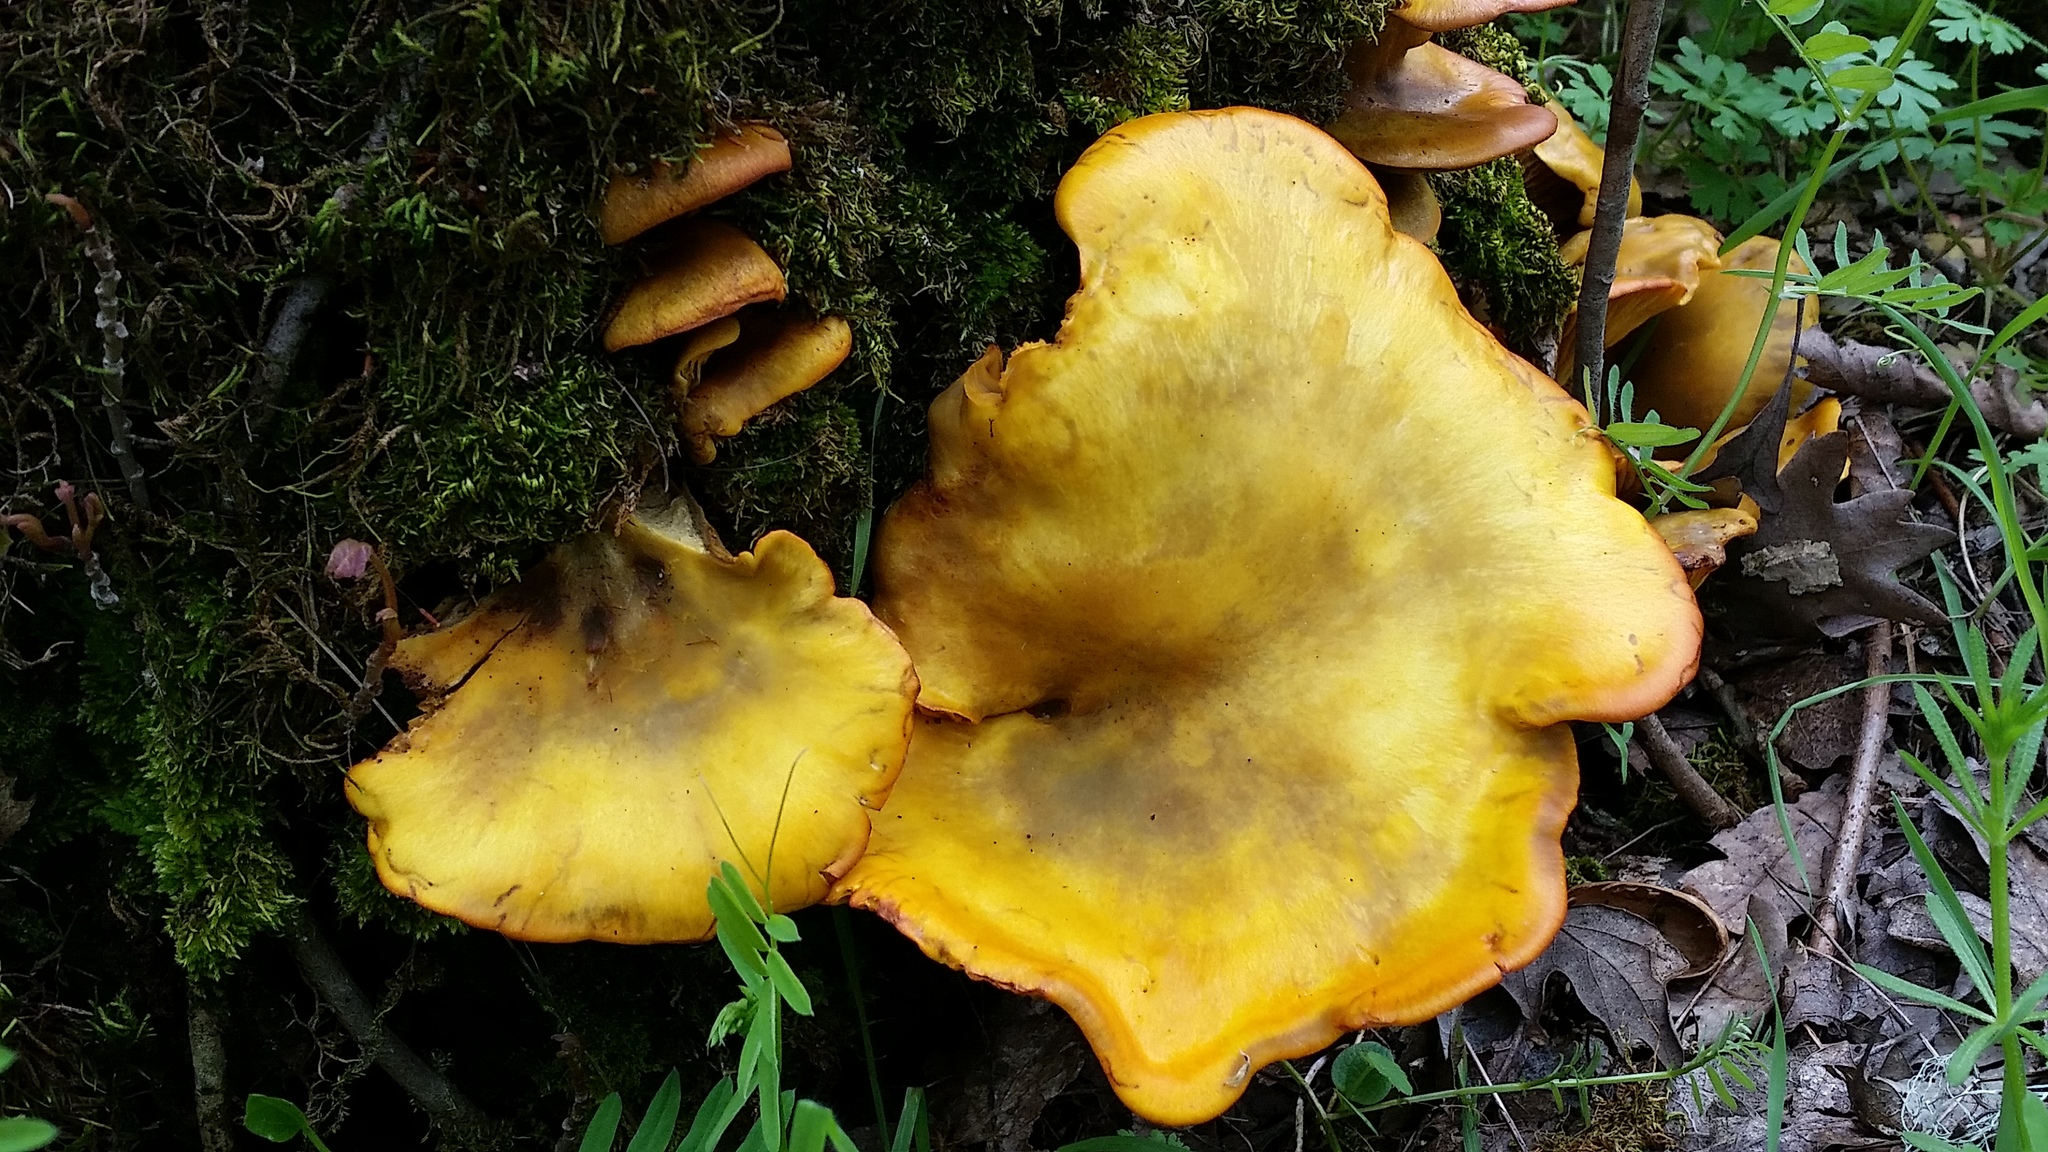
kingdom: Fungi
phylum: Basidiomycota
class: Agaricomycetes
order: Agaricales
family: Omphalotaceae
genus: Omphalotus
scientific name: Omphalotus olivascens
